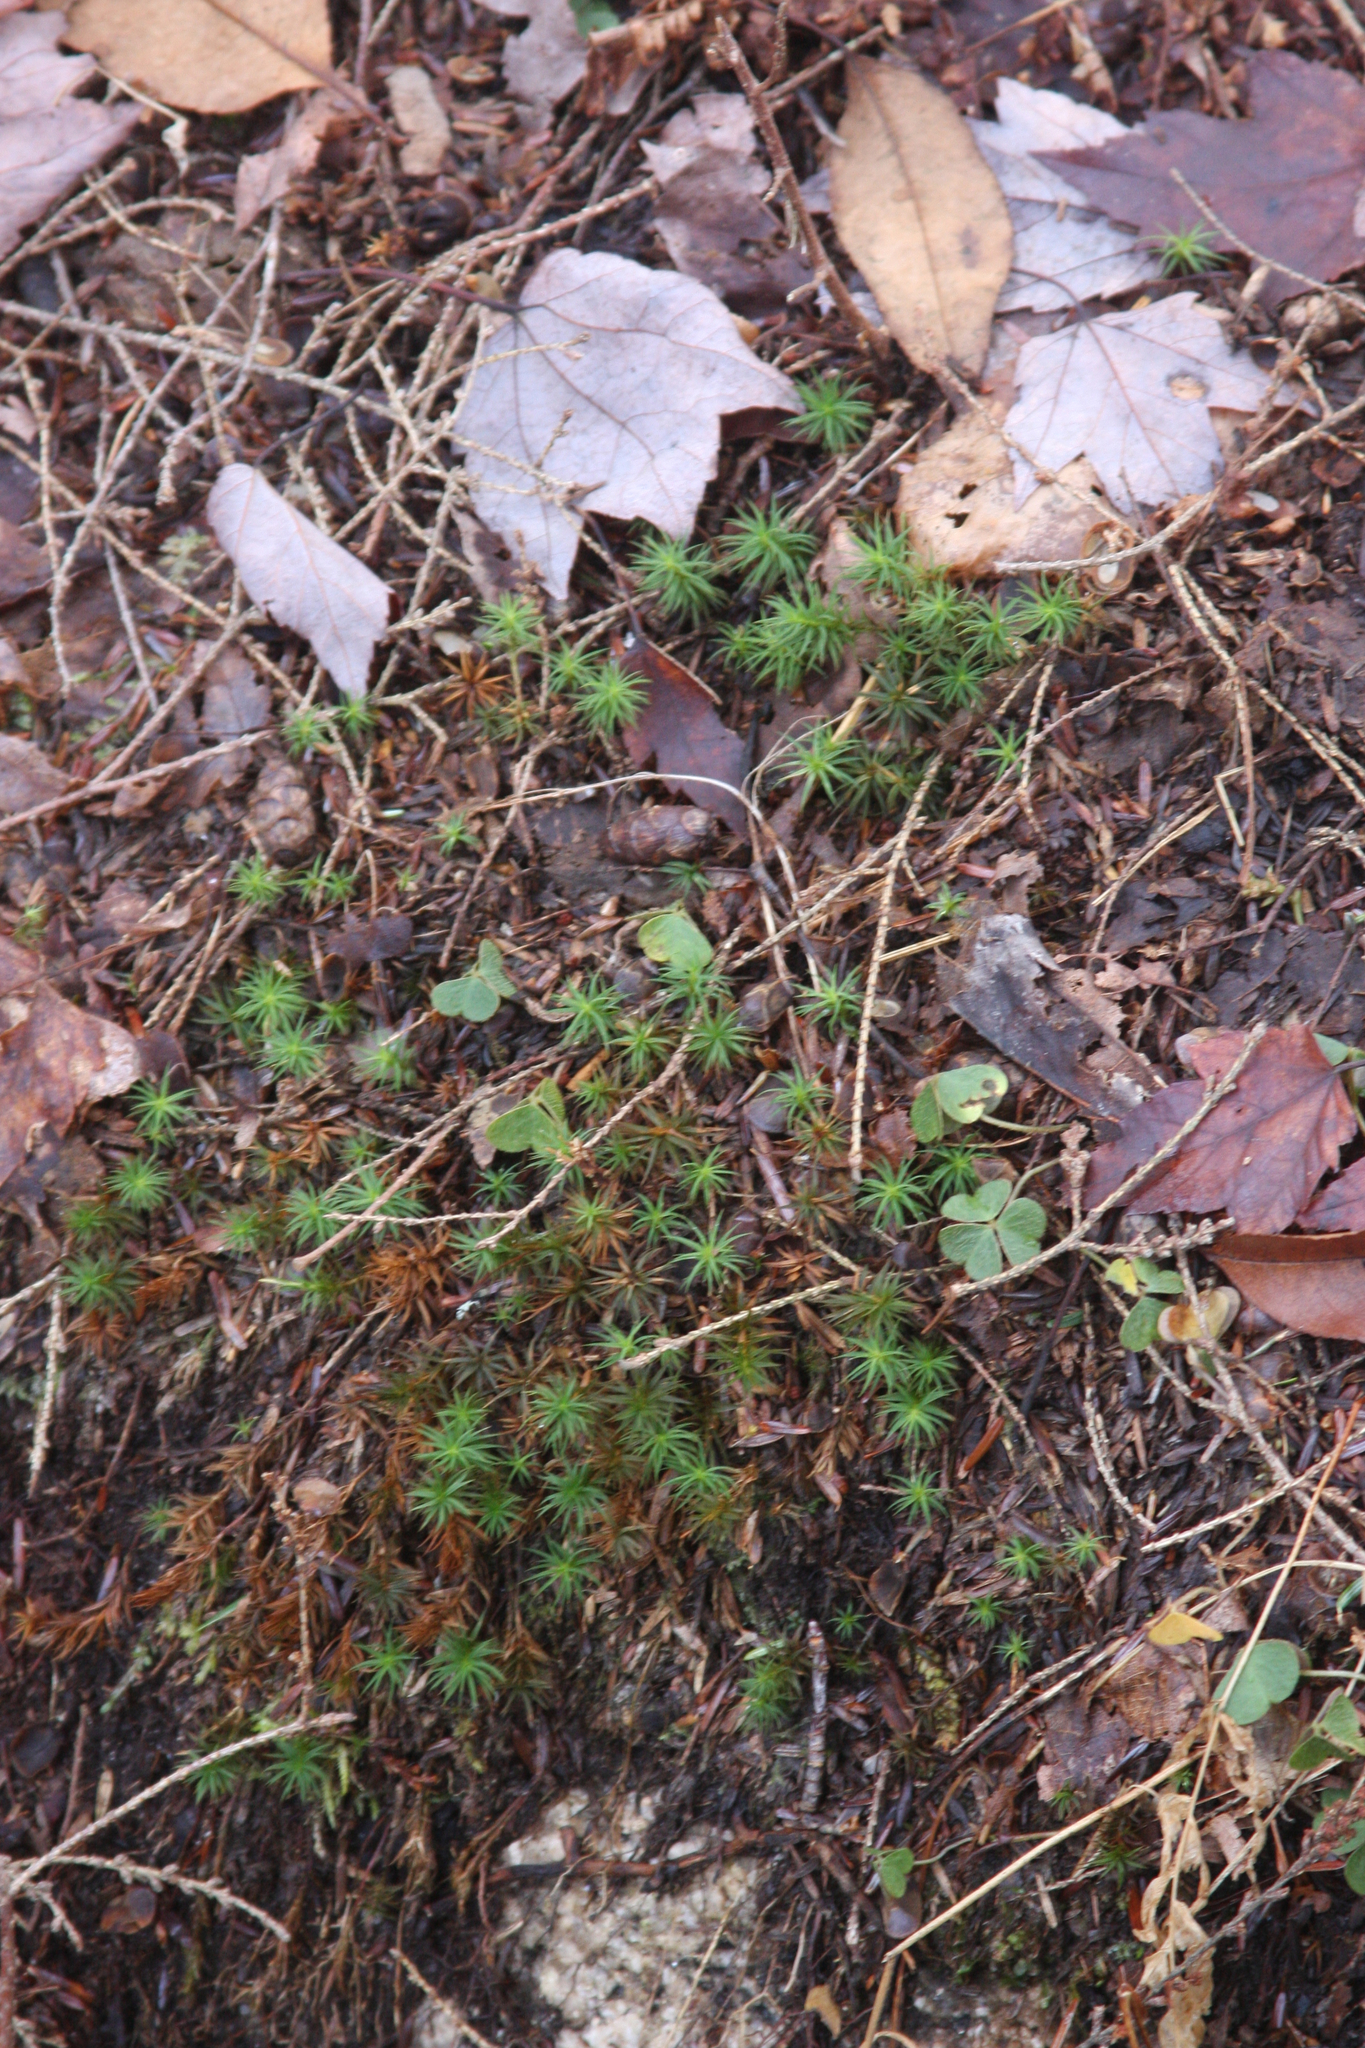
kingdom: Plantae
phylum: Tracheophyta
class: Magnoliopsida
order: Oxalidales
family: Oxalidaceae
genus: Oxalis
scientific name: Oxalis montana
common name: American wood-sorrel
